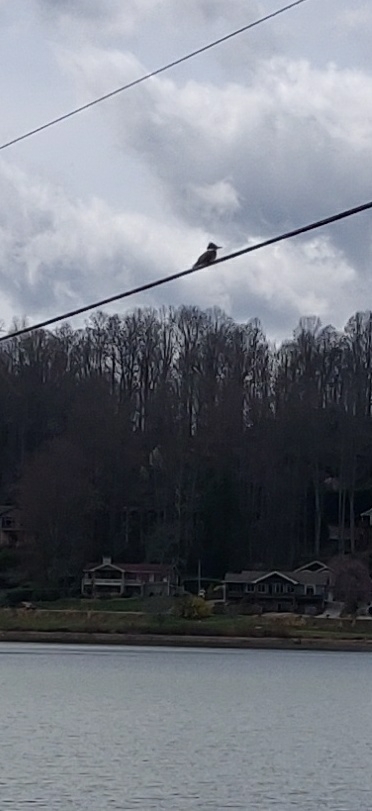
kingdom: Animalia
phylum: Chordata
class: Aves
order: Coraciiformes
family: Alcedinidae
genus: Megaceryle
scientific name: Megaceryle alcyon
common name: Belted kingfisher
